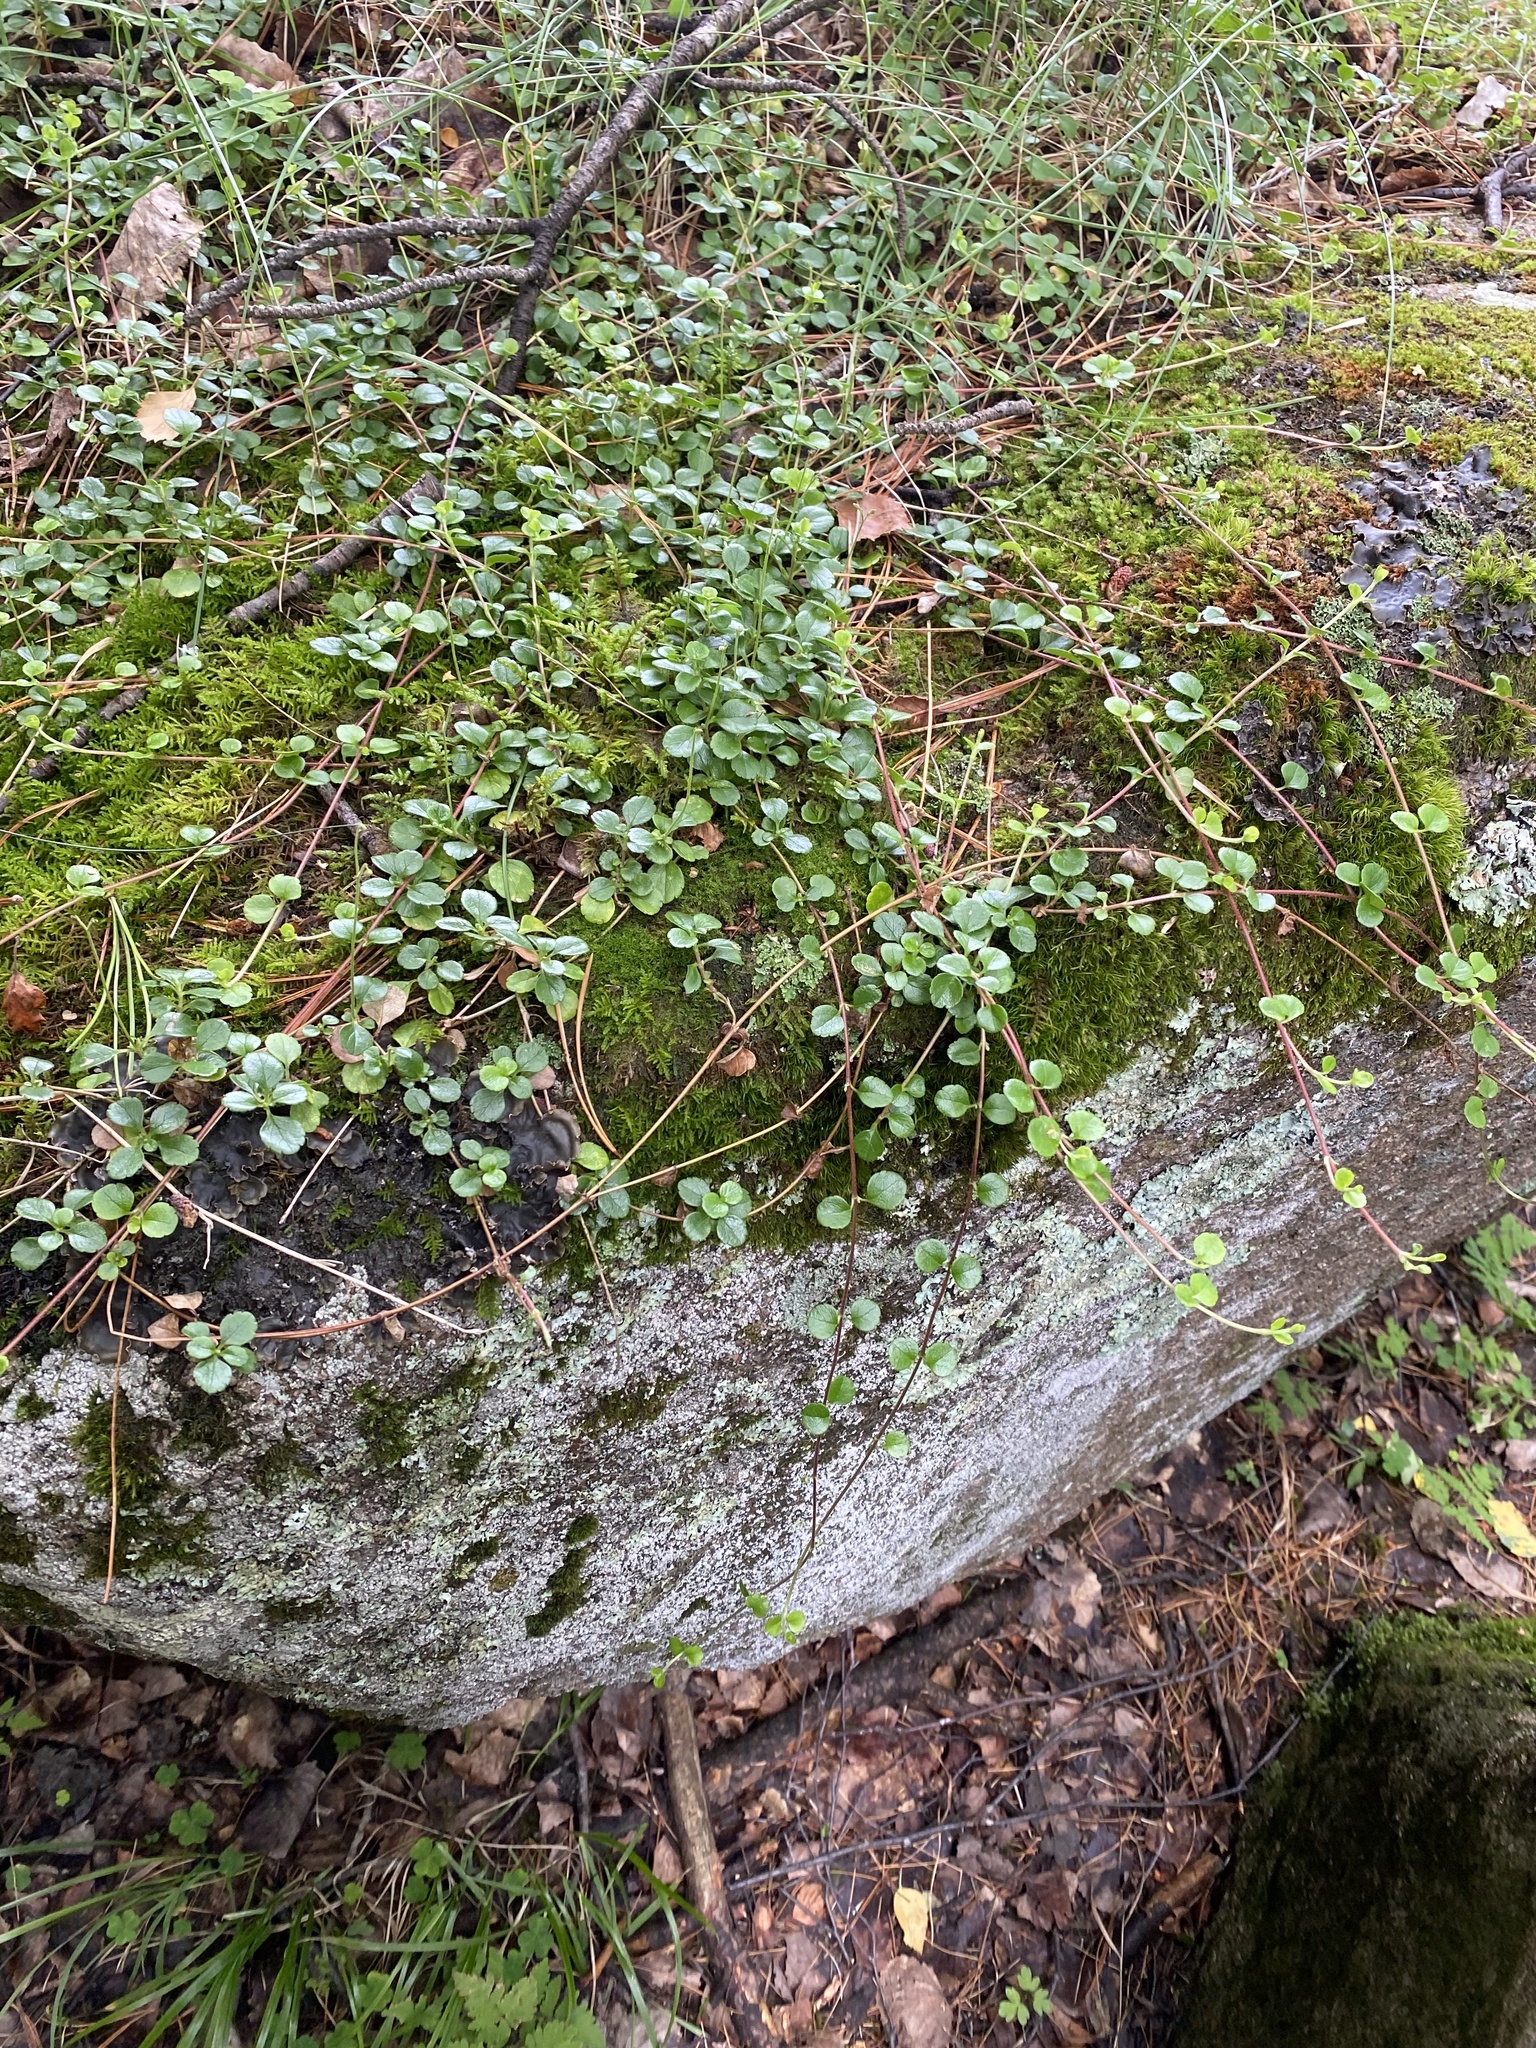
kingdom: Plantae
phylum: Tracheophyta
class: Magnoliopsida
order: Dipsacales
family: Caprifoliaceae
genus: Linnaea
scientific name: Linnaea borealis
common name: Twinflower
